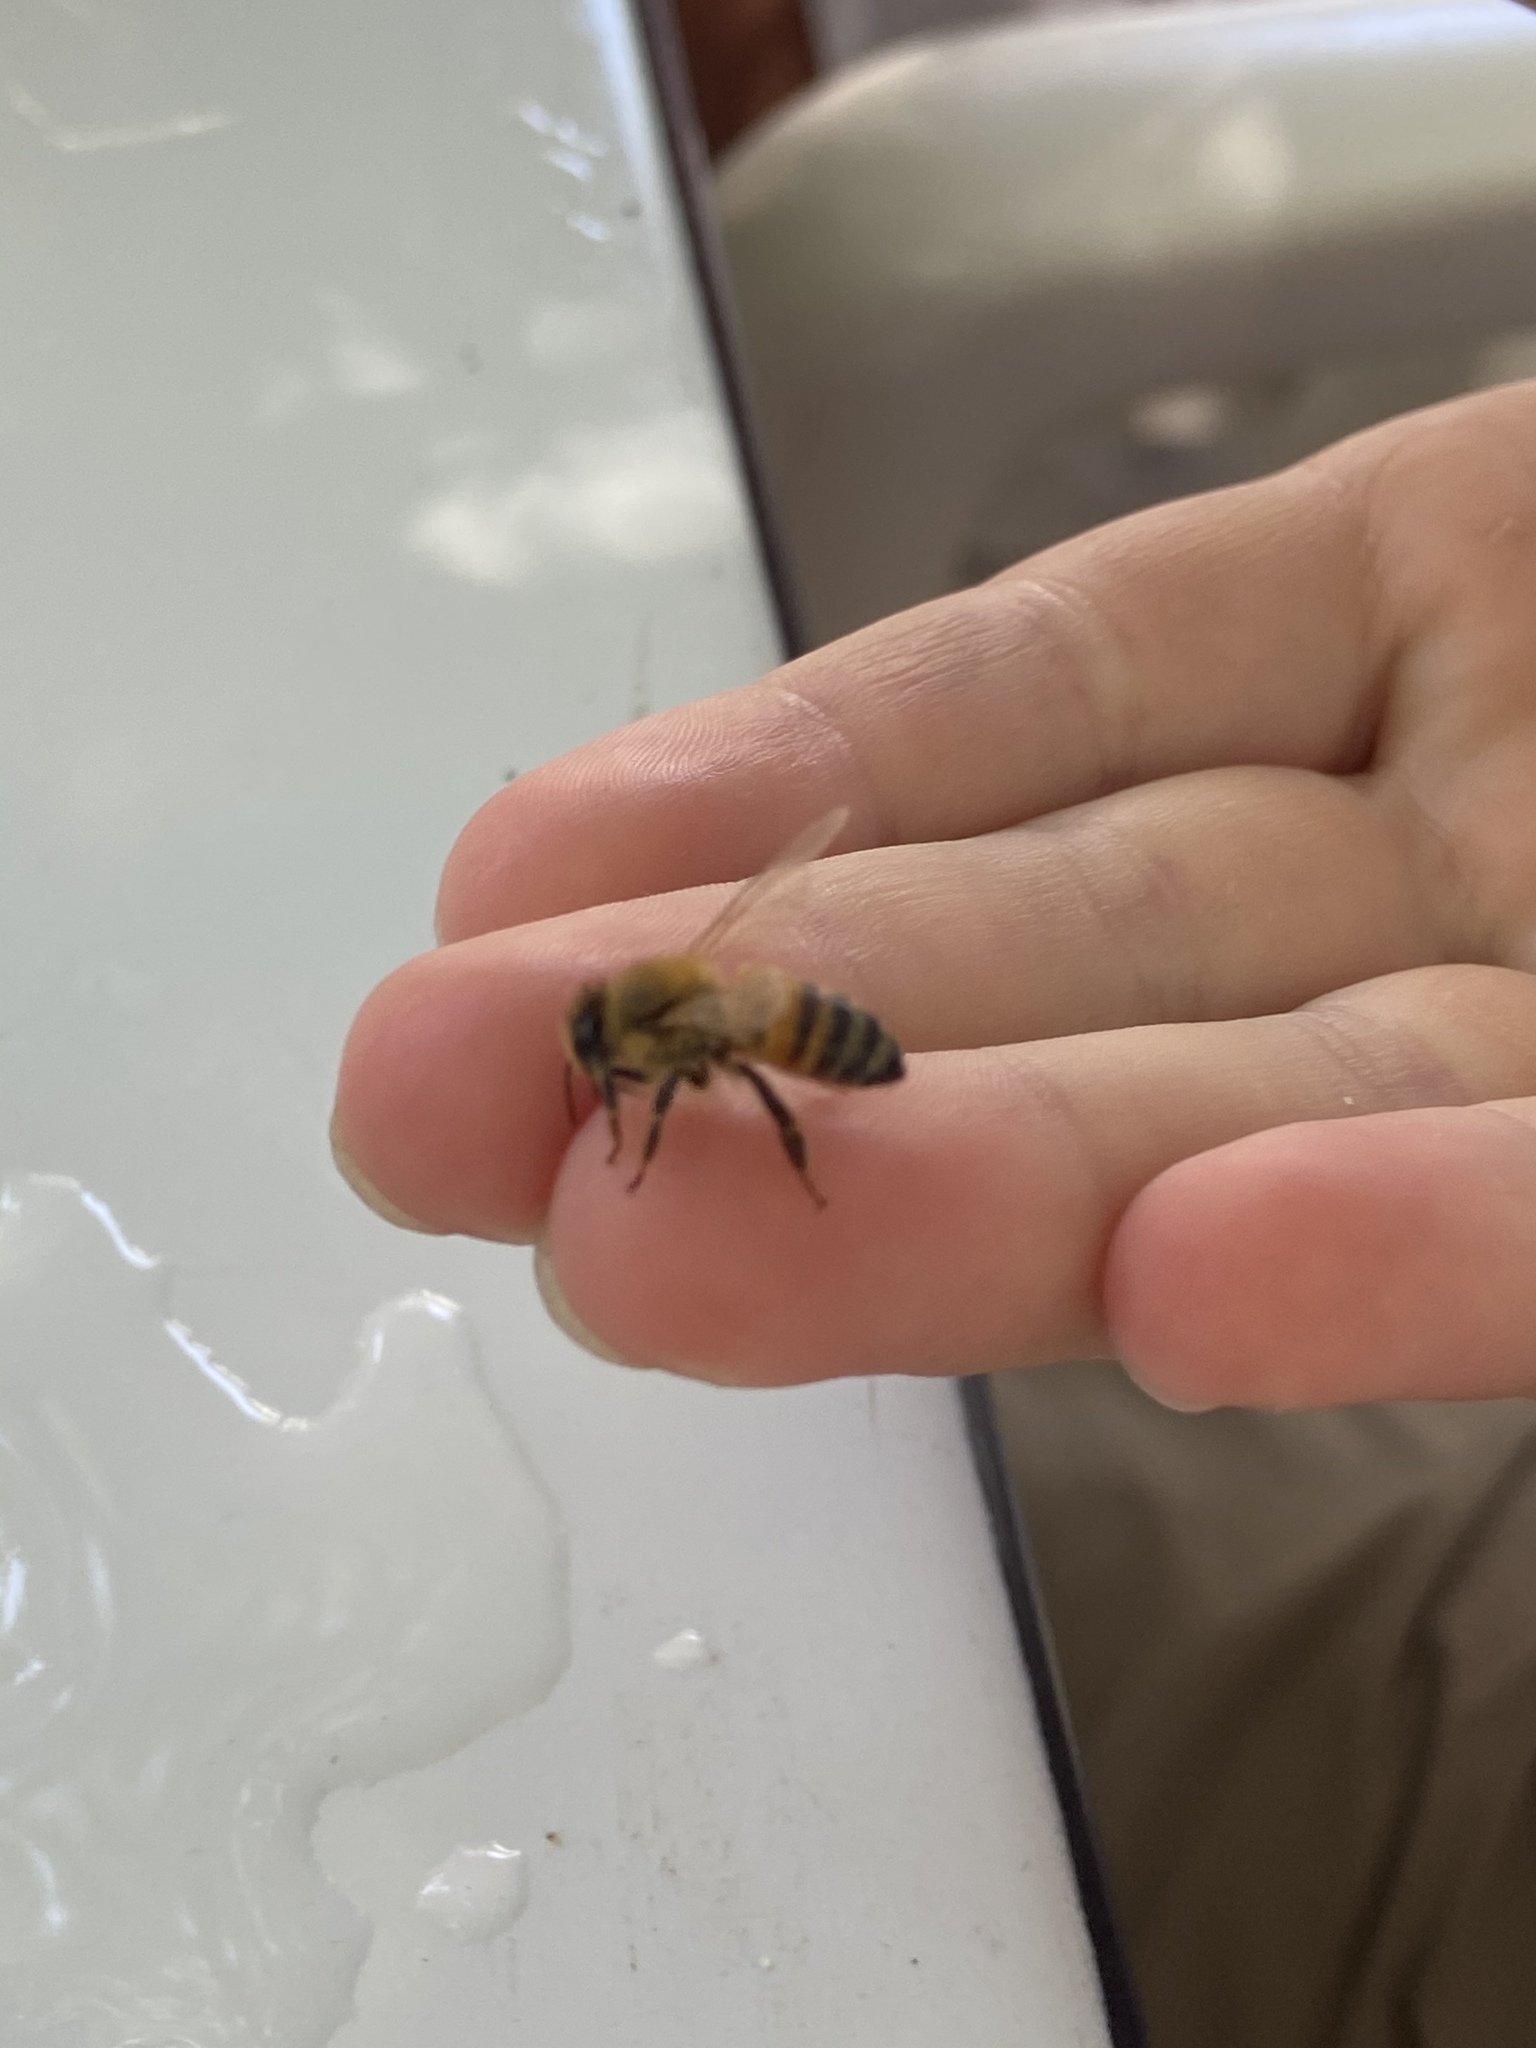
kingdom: Animalia
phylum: Arthropoda
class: Insecta
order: Hymenoptera
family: Apidae
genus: Apis
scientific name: Apis mellifera
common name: Honey bee
